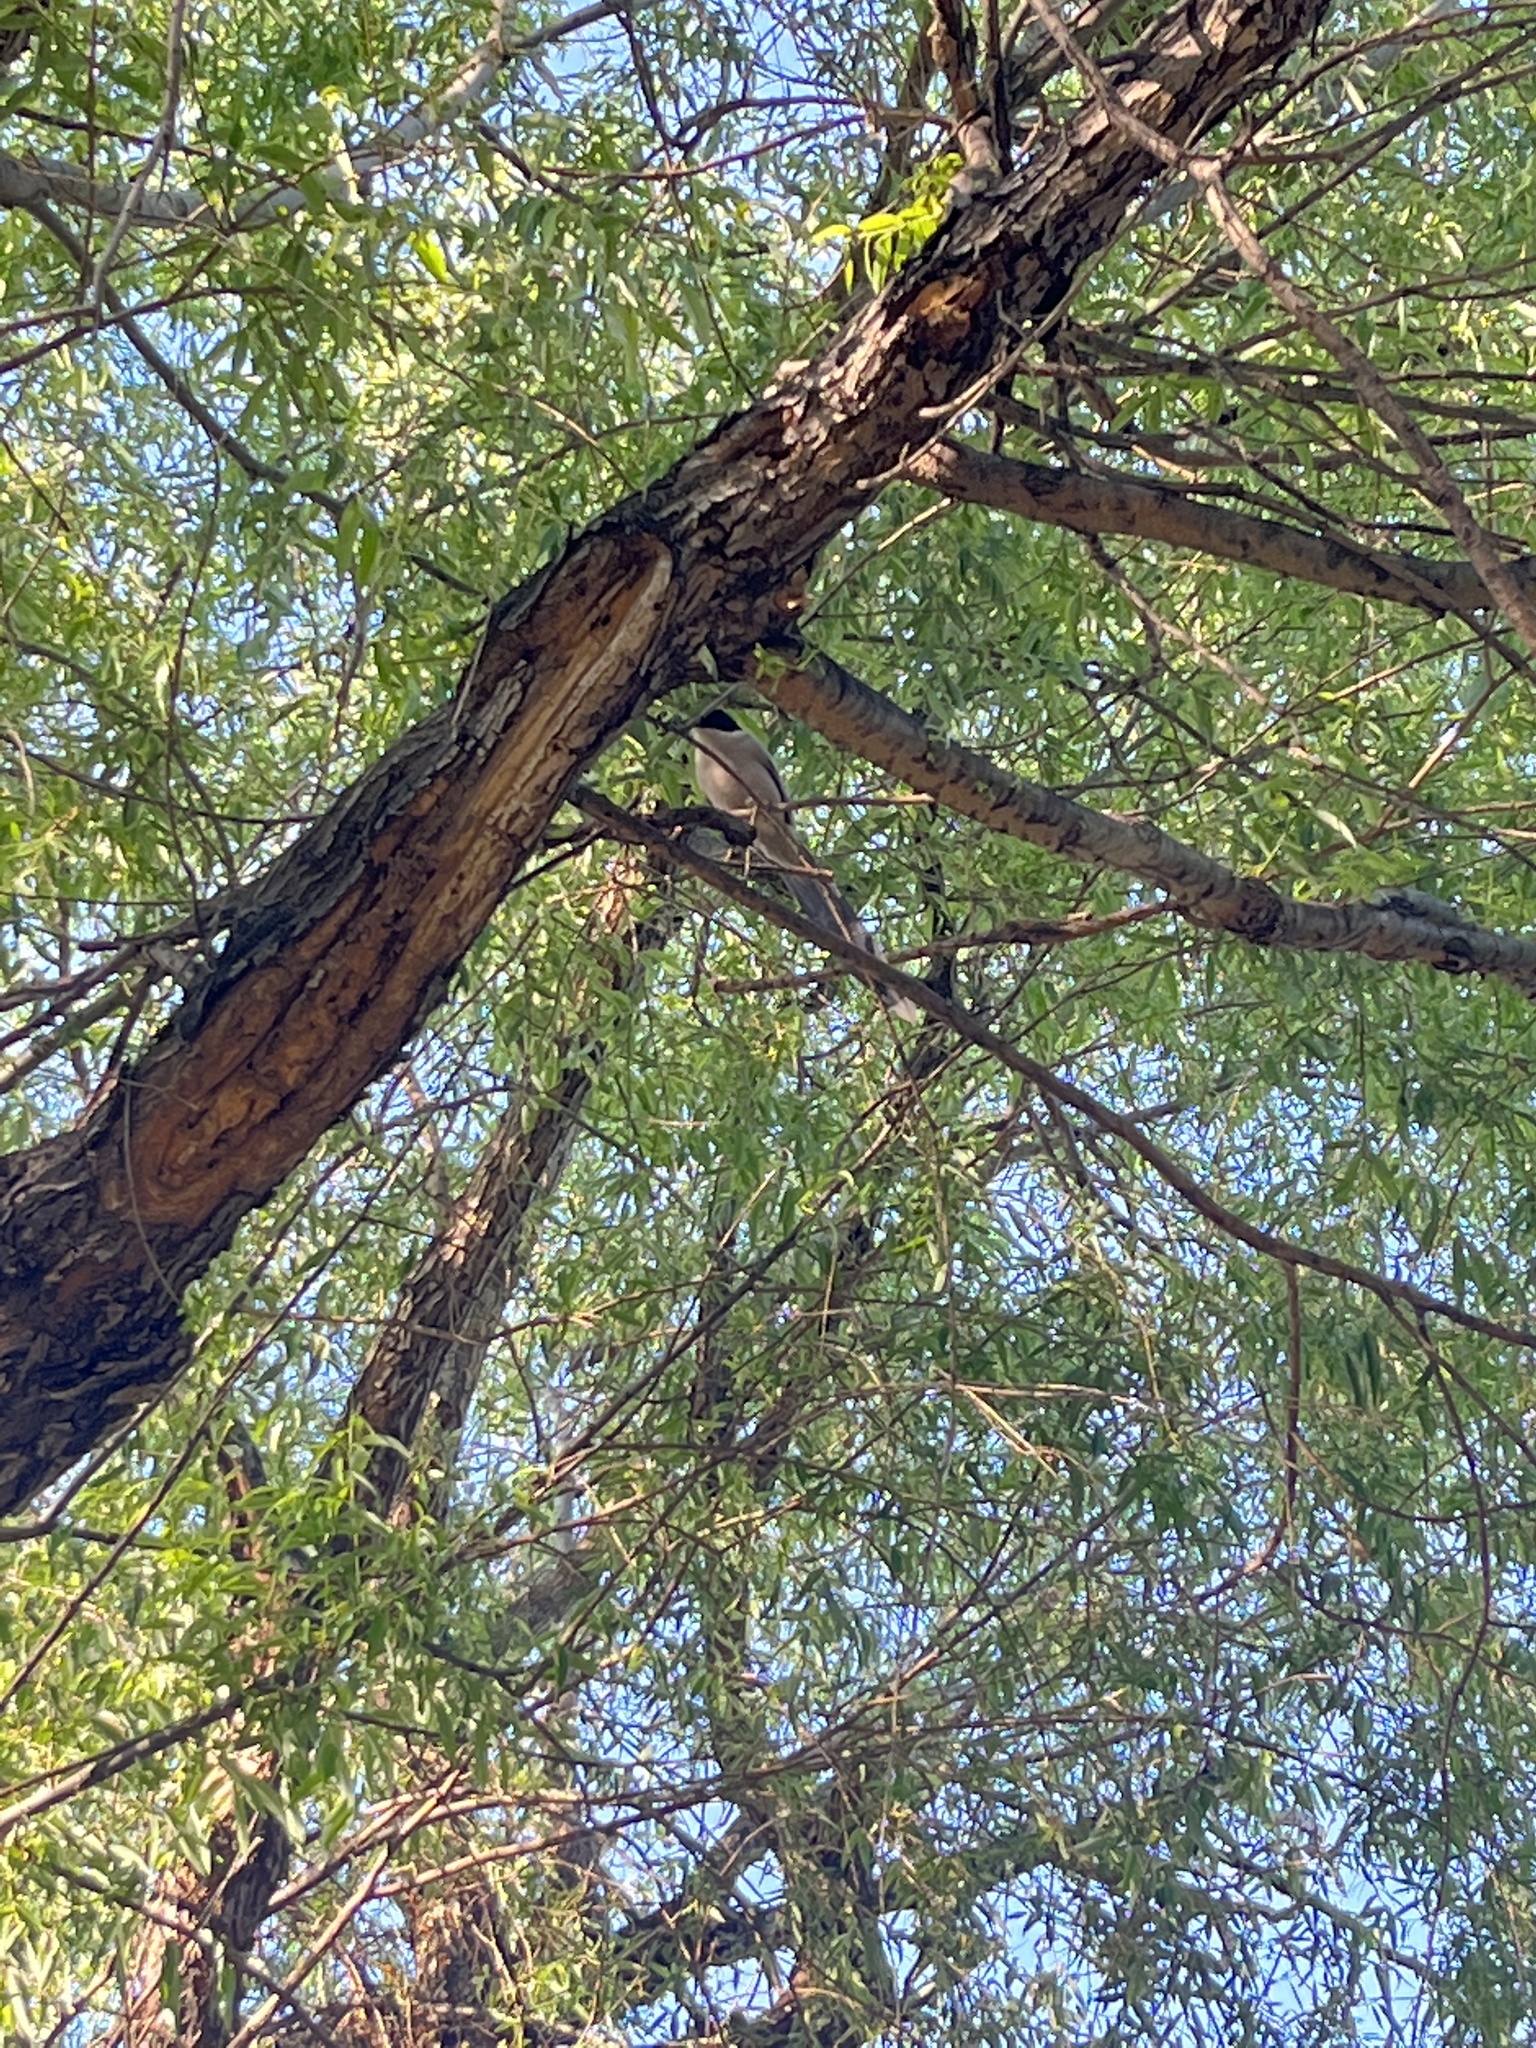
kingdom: Animalia
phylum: Chordata
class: Aves
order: Passeriformes
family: Corvidae
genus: Cyanopica
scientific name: Cyanopica cyanus
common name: Azure-winged magpie
